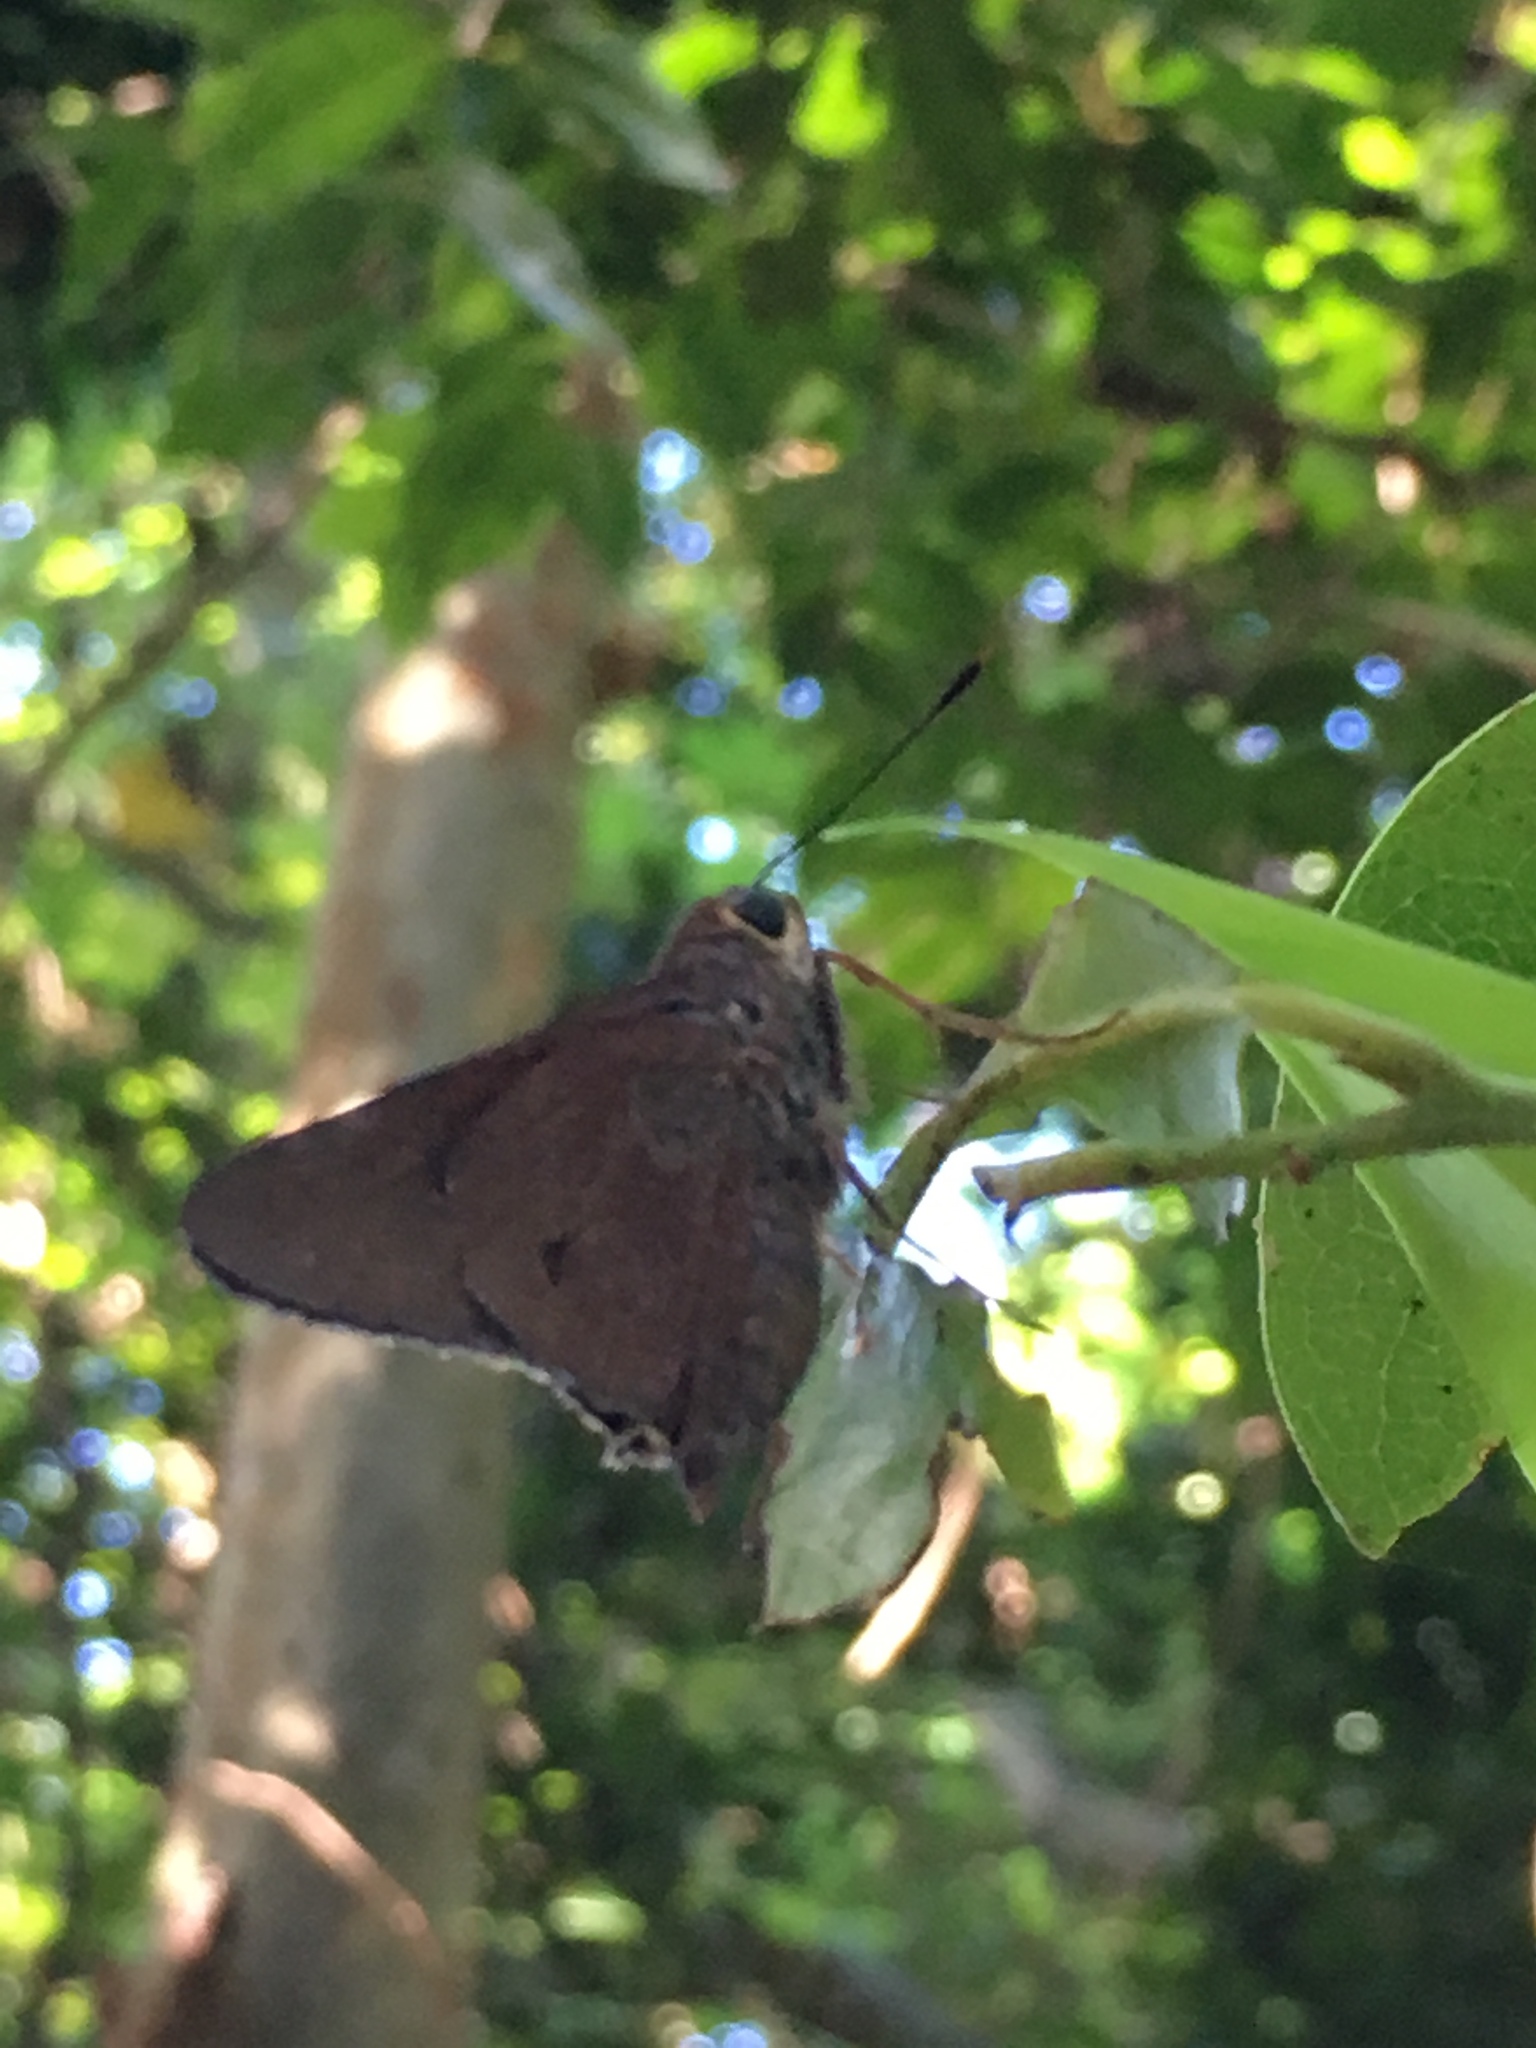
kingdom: Animalia
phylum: Arthropoda
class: Insecta
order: Lepidoptera
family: Hesperiidae
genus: Asbolis
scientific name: Asbolis capucinus
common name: Monk skipper
